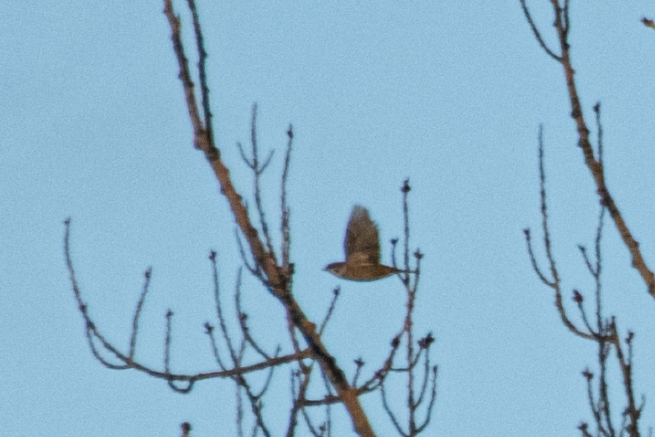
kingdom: Animalia
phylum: Chordata
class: Aves
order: Passeriformes
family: Passeridae
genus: Passer
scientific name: Passer montanus
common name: Eurasian tree sparrow
